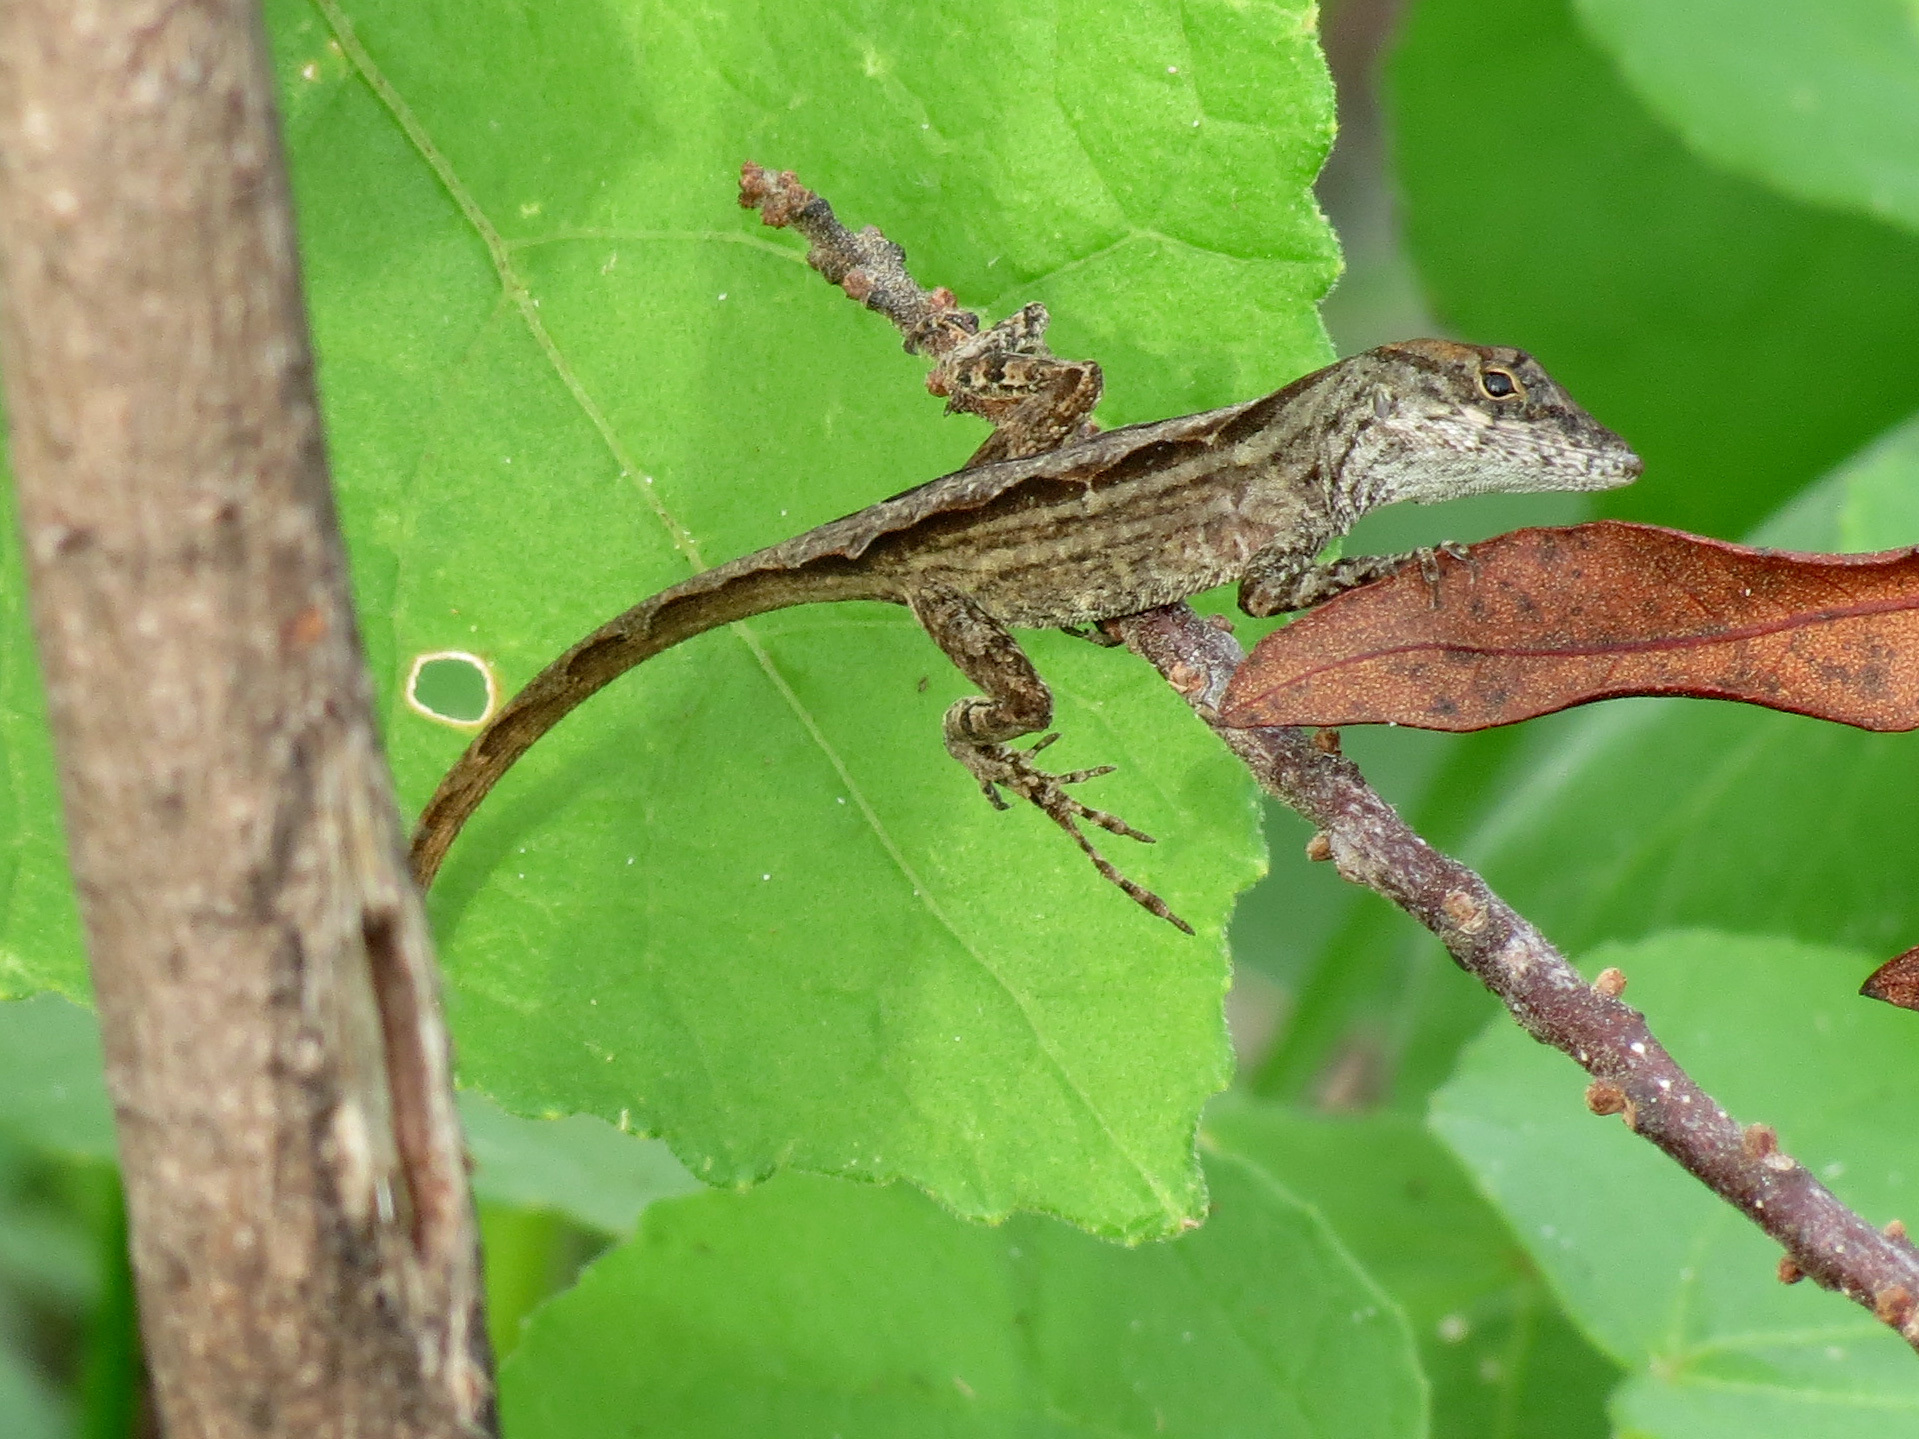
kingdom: Animalia
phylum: Chordata
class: Squamata
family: Dactyloidae
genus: Anolis
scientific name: Anolis sagrei
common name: Brown anole
